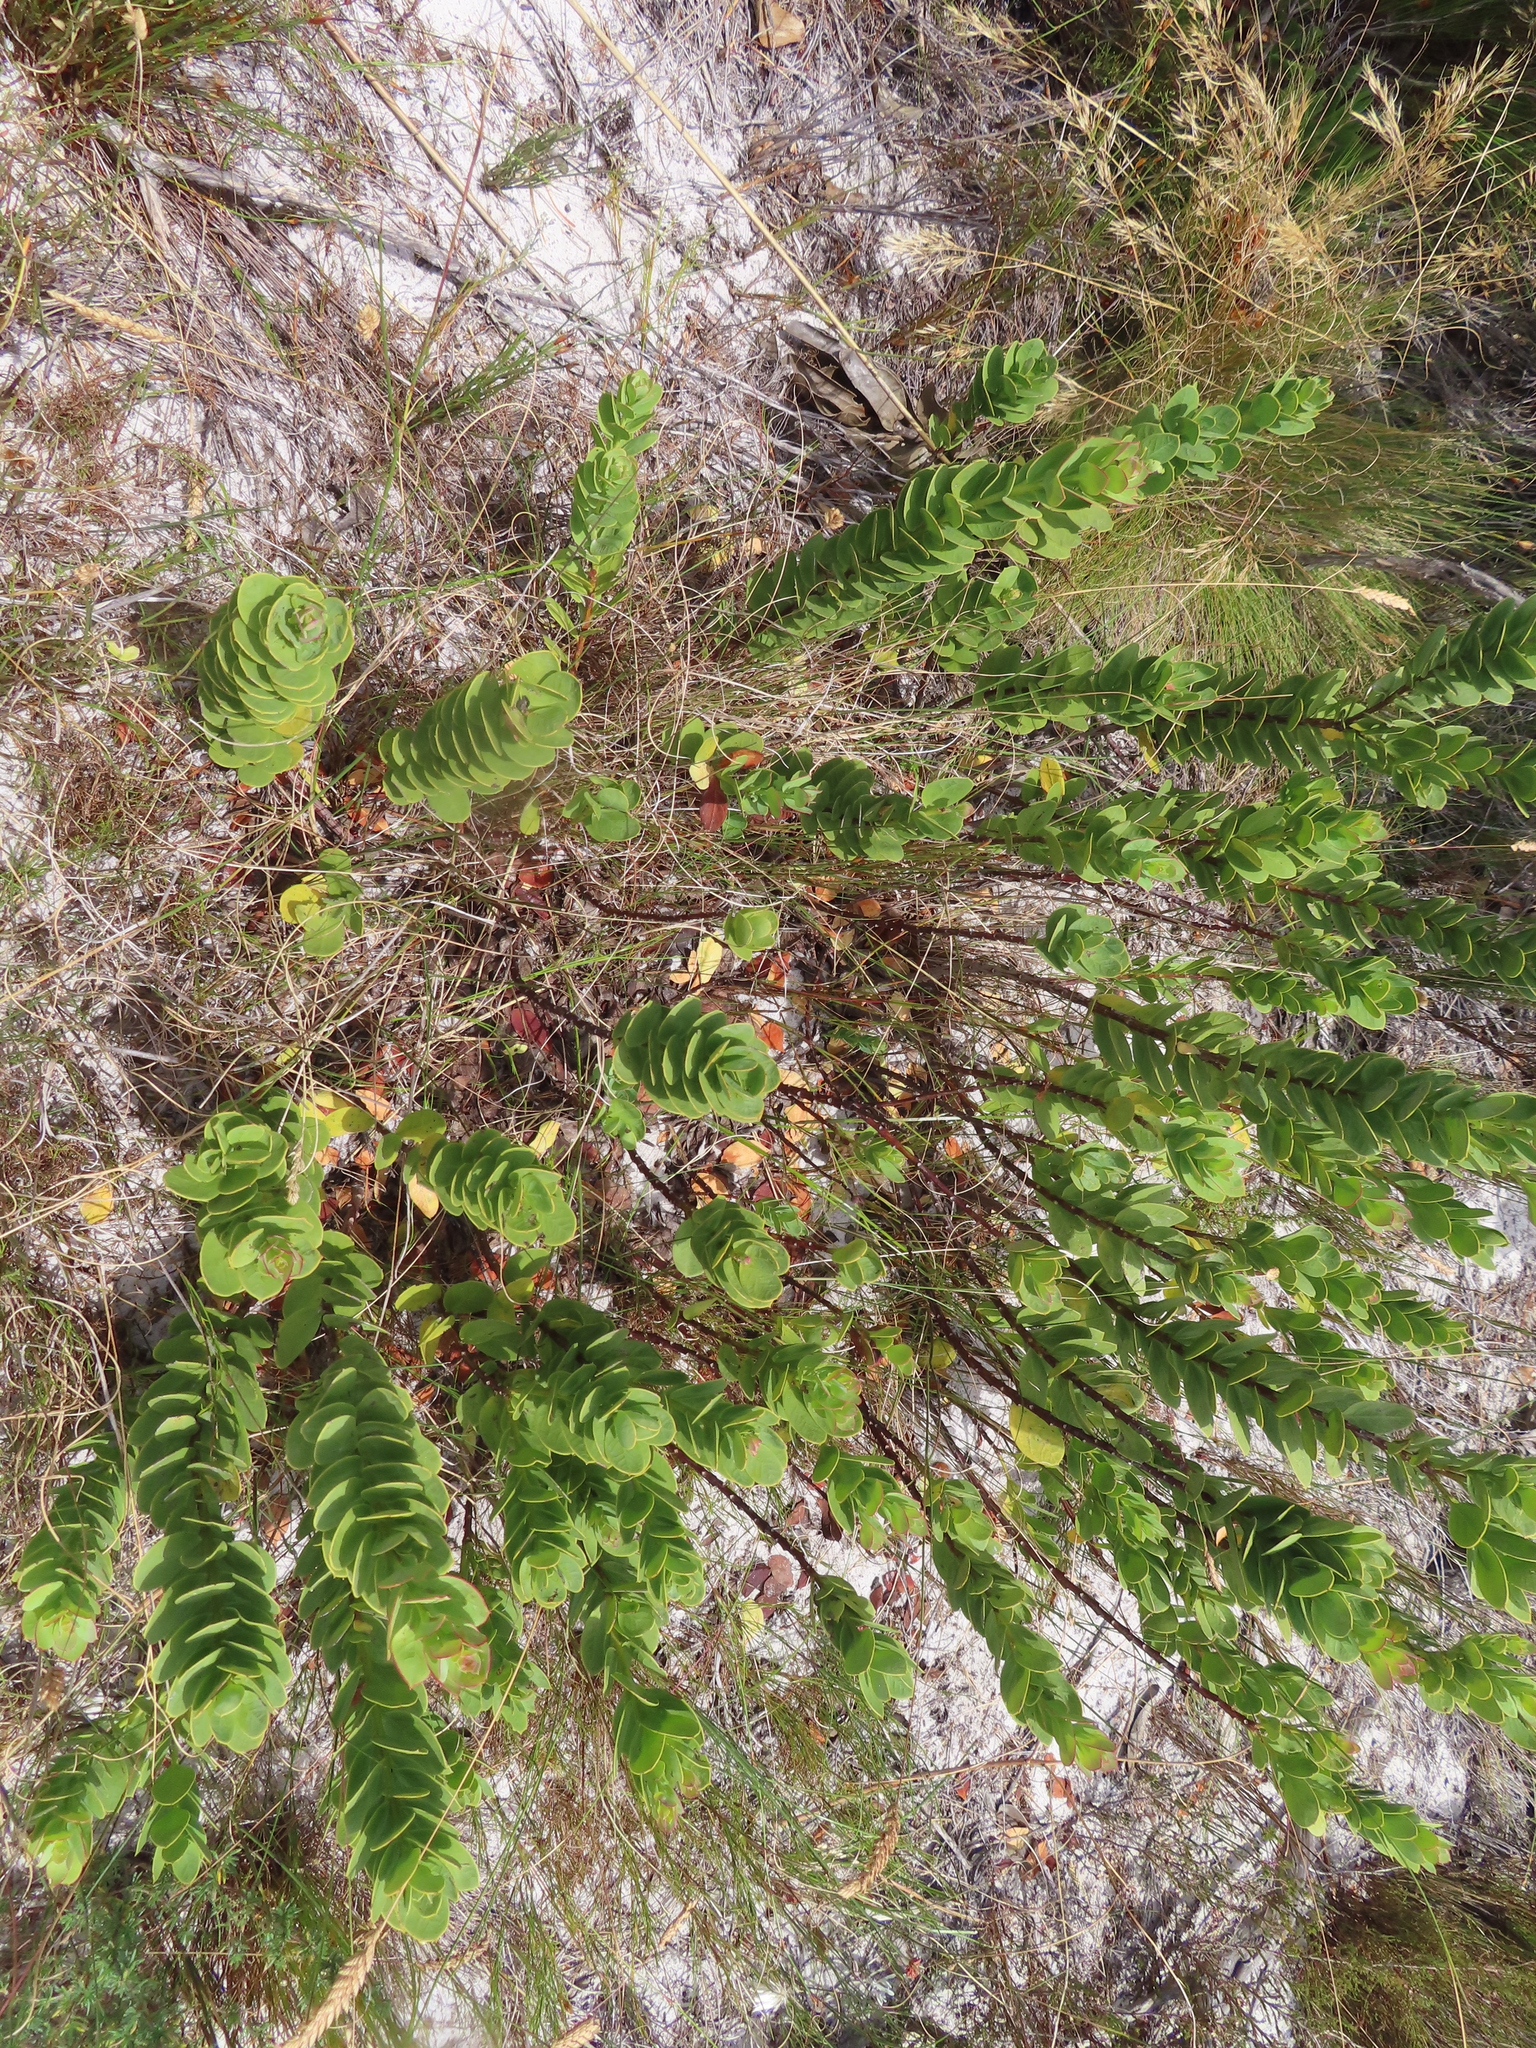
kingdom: Plantae
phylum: Tracheophyta
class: Magnoliopsida
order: Santalales
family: Santalaceae
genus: Osyris
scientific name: Osyris compressa
